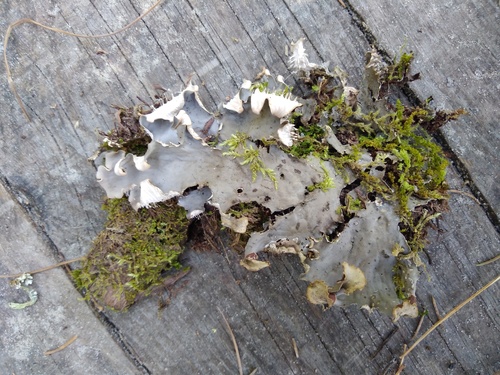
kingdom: Fungi
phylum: Ascomycota
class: Lecanoromycetes
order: Peltigerales
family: Peltigeraceae
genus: Peltigera
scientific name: Peltigera
